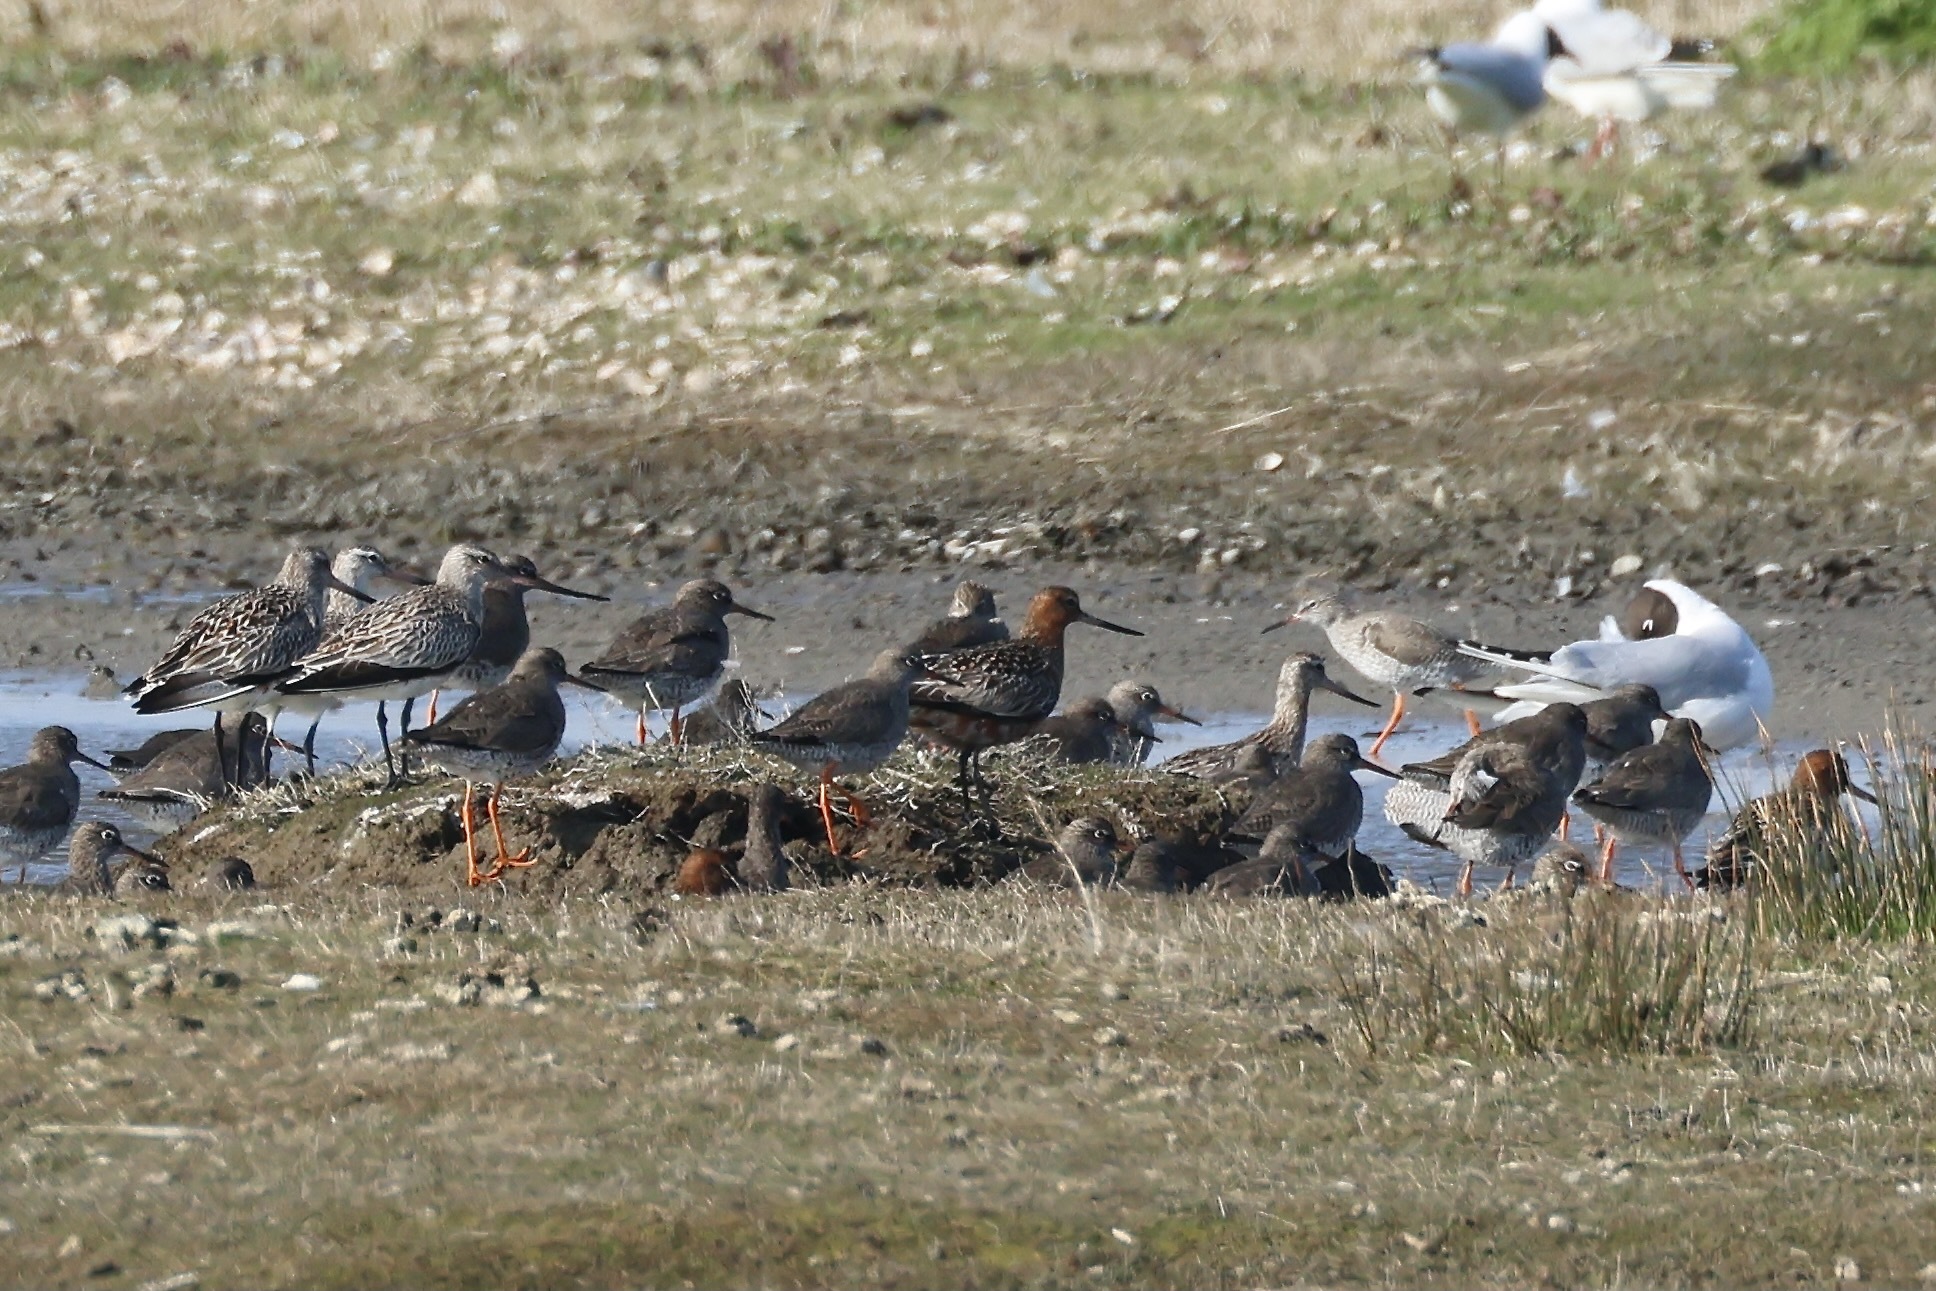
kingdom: Animalia
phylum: Chordata
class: Aves
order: Charadriiformes
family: Scolopacidae
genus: Limosa
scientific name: Limosa lapponica
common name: Bar-tailed godwit
